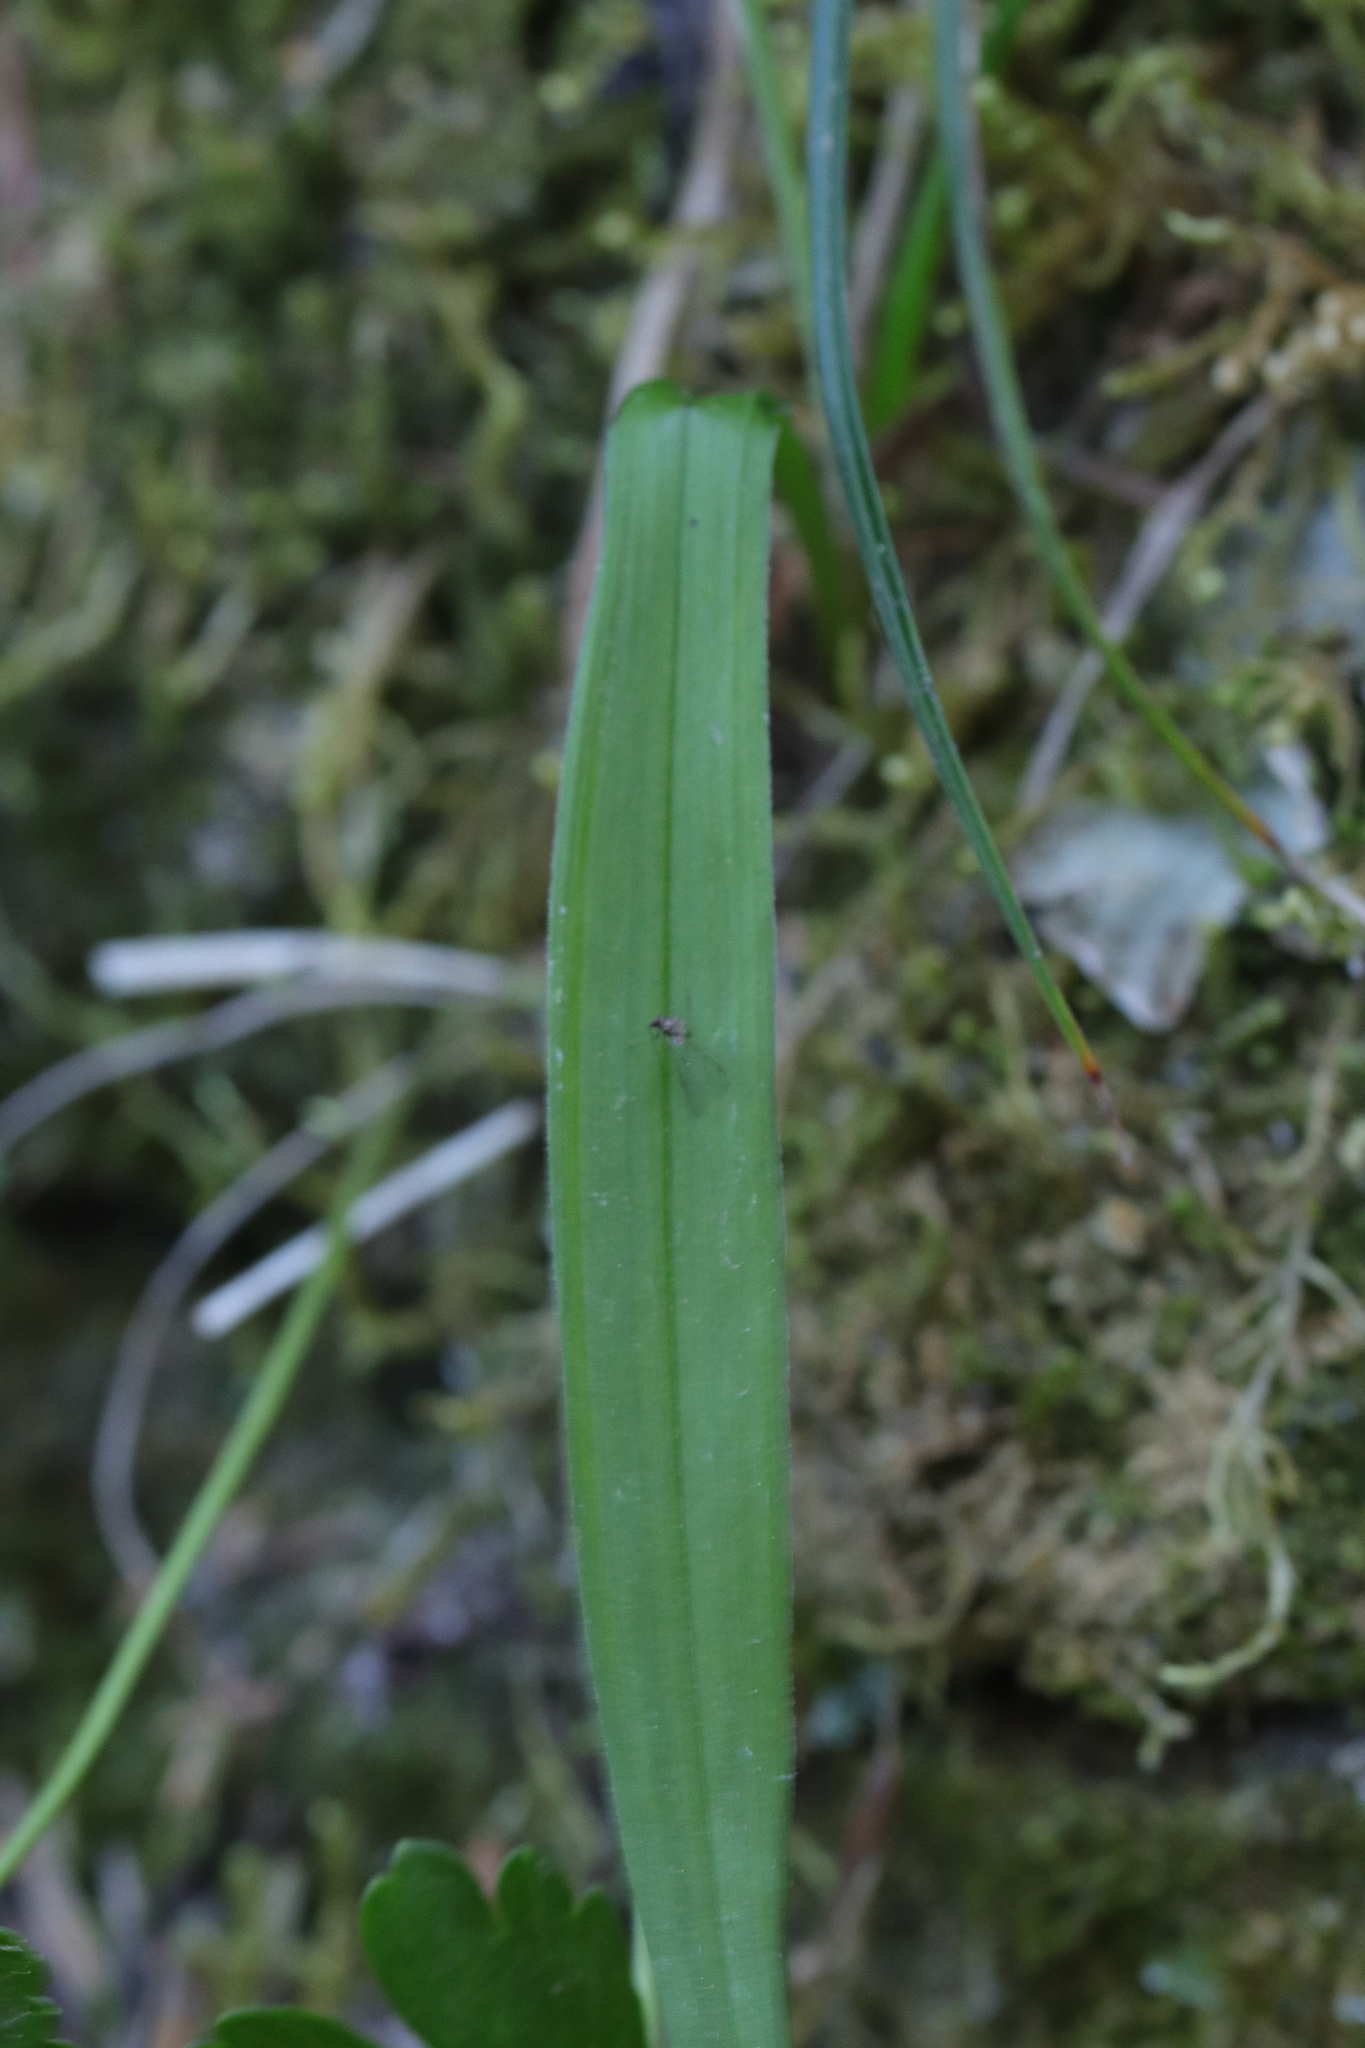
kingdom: Plantae
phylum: Tracheophyta
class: Liliopsida
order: Liliales
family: Melanthiaceae
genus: Anticlea
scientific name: Anticlea occidentalis
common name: Bronze-bells
